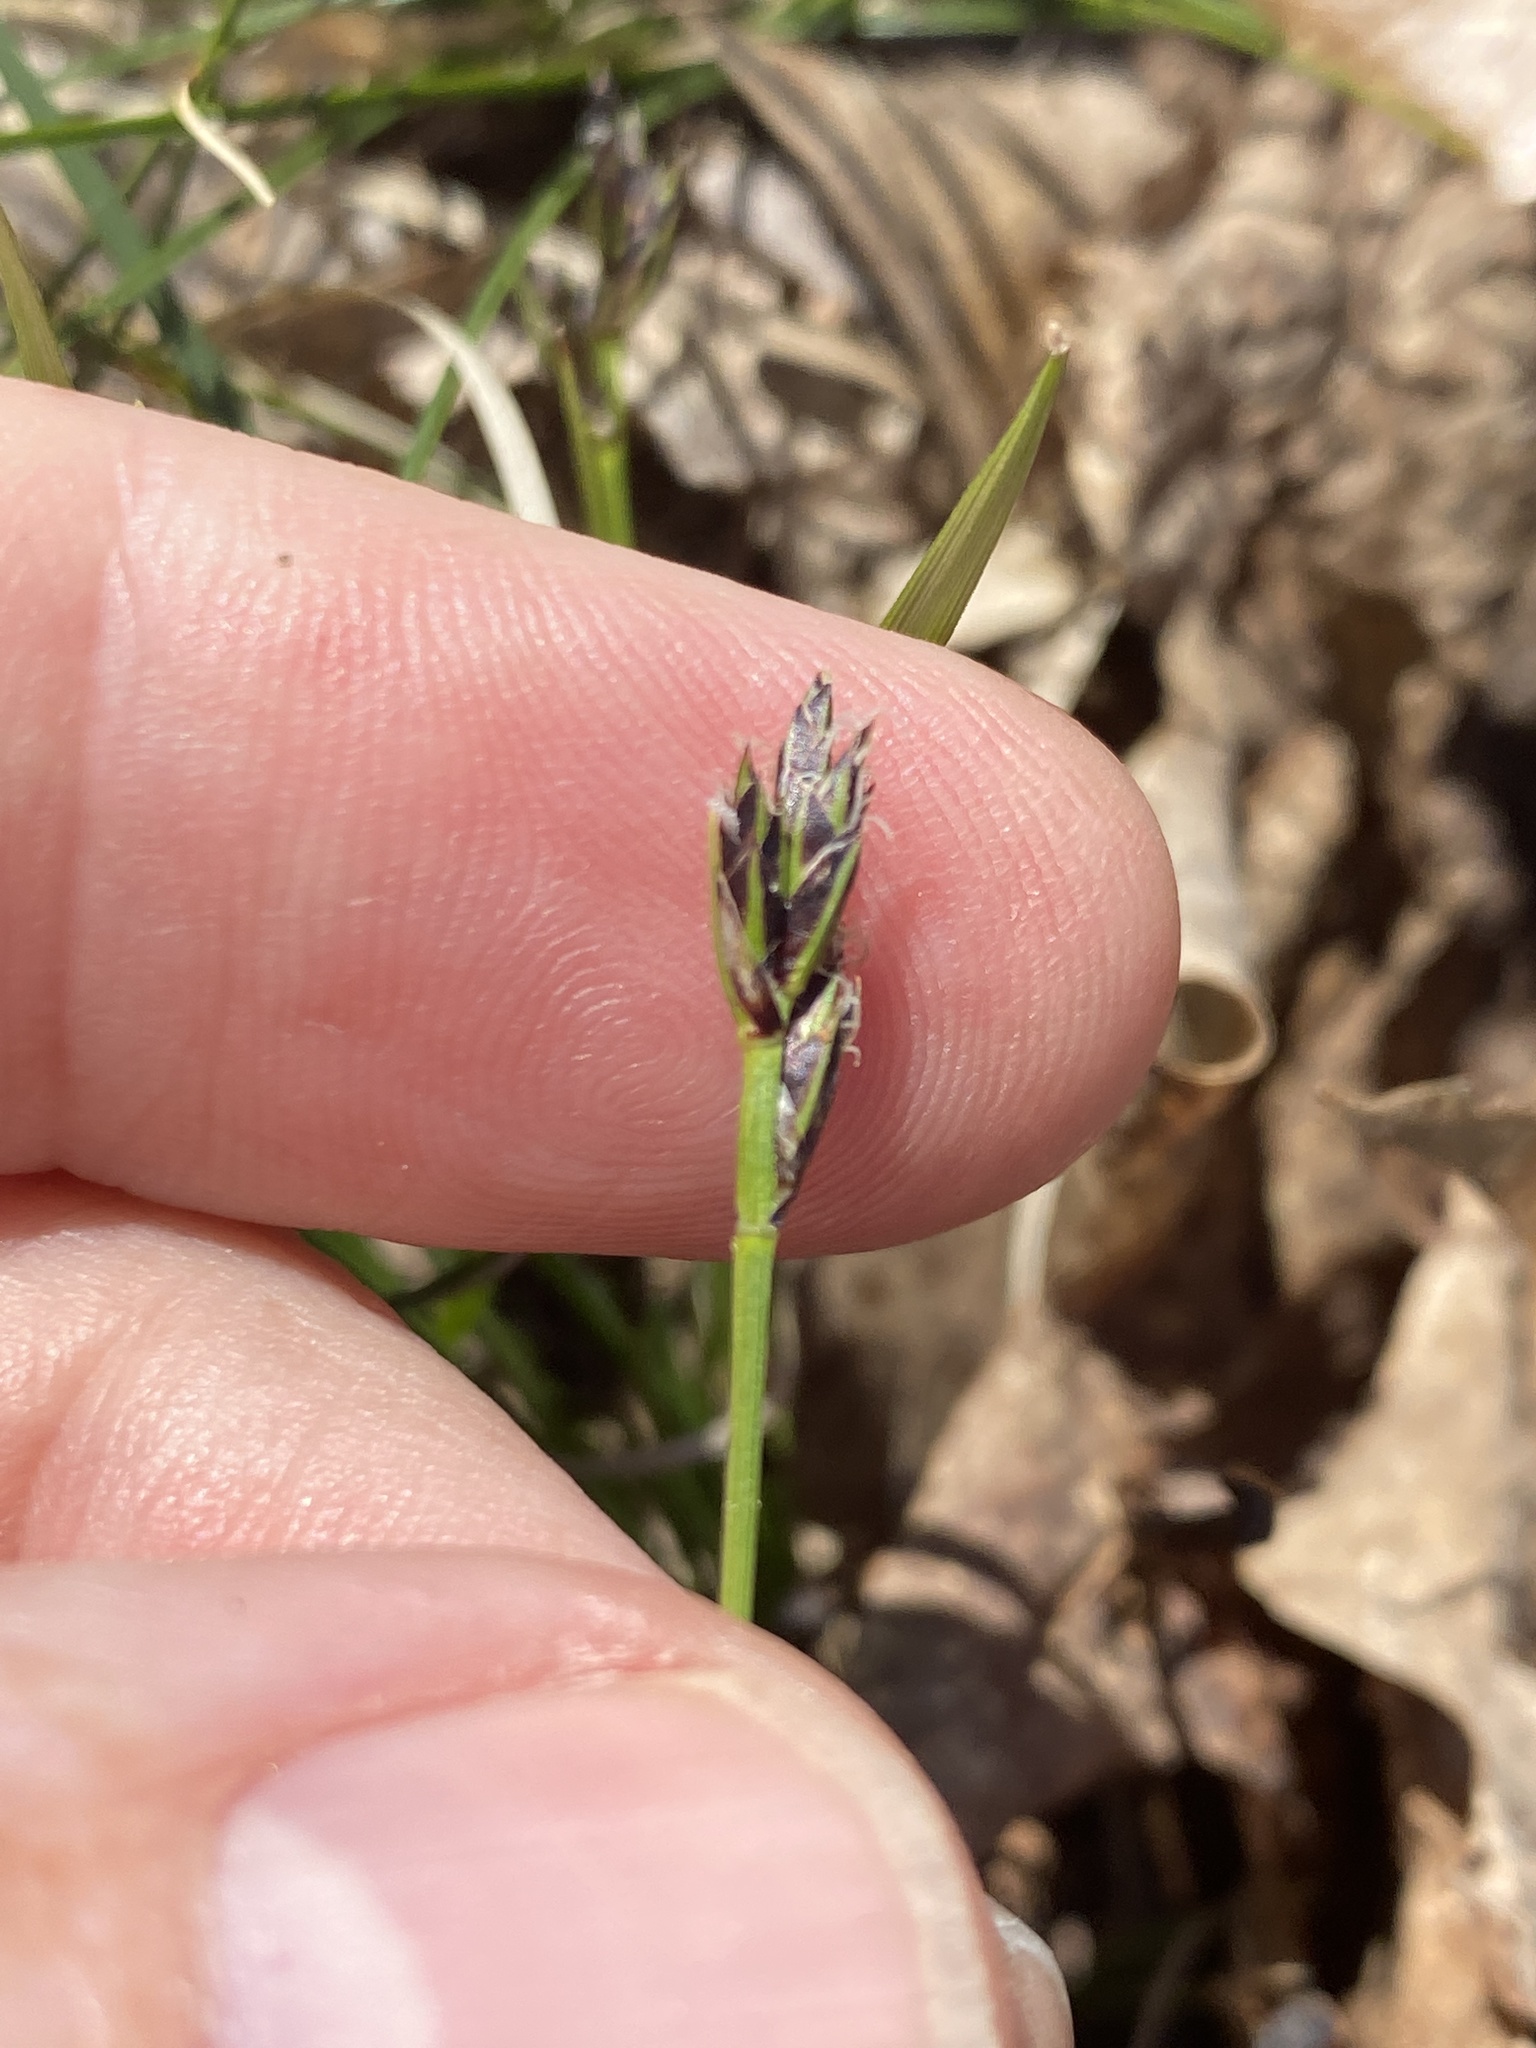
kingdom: Plantae
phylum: Tracheophyta
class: Liliopsida
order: Poales
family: Cyperaceae
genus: Carex
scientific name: Carex nigromarginata
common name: Black-edged sedge
